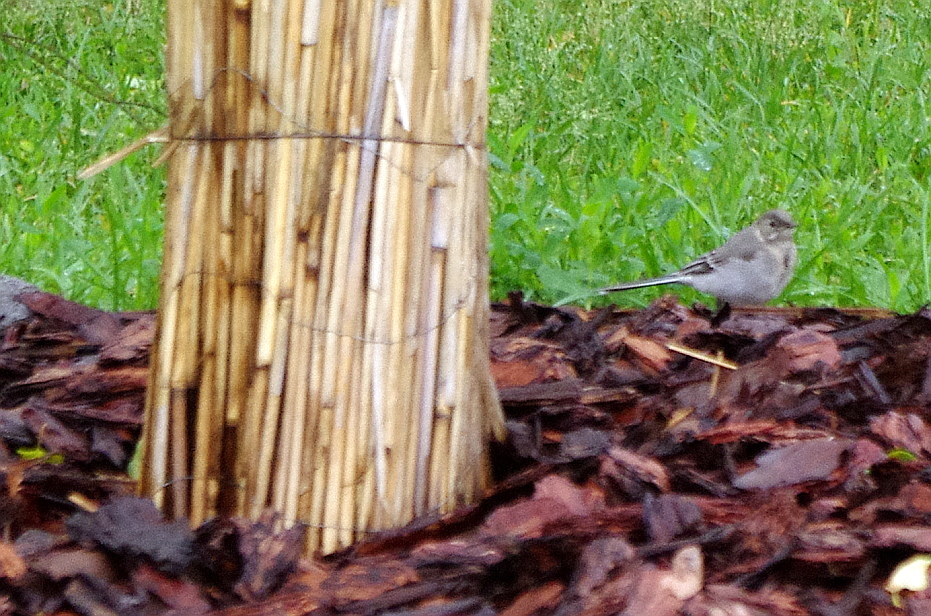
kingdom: Animalia
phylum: Chordata
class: Aves
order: Passeriformes
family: Motacillidae
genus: Motacilla
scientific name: Motacilla alba
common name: White wagtail
